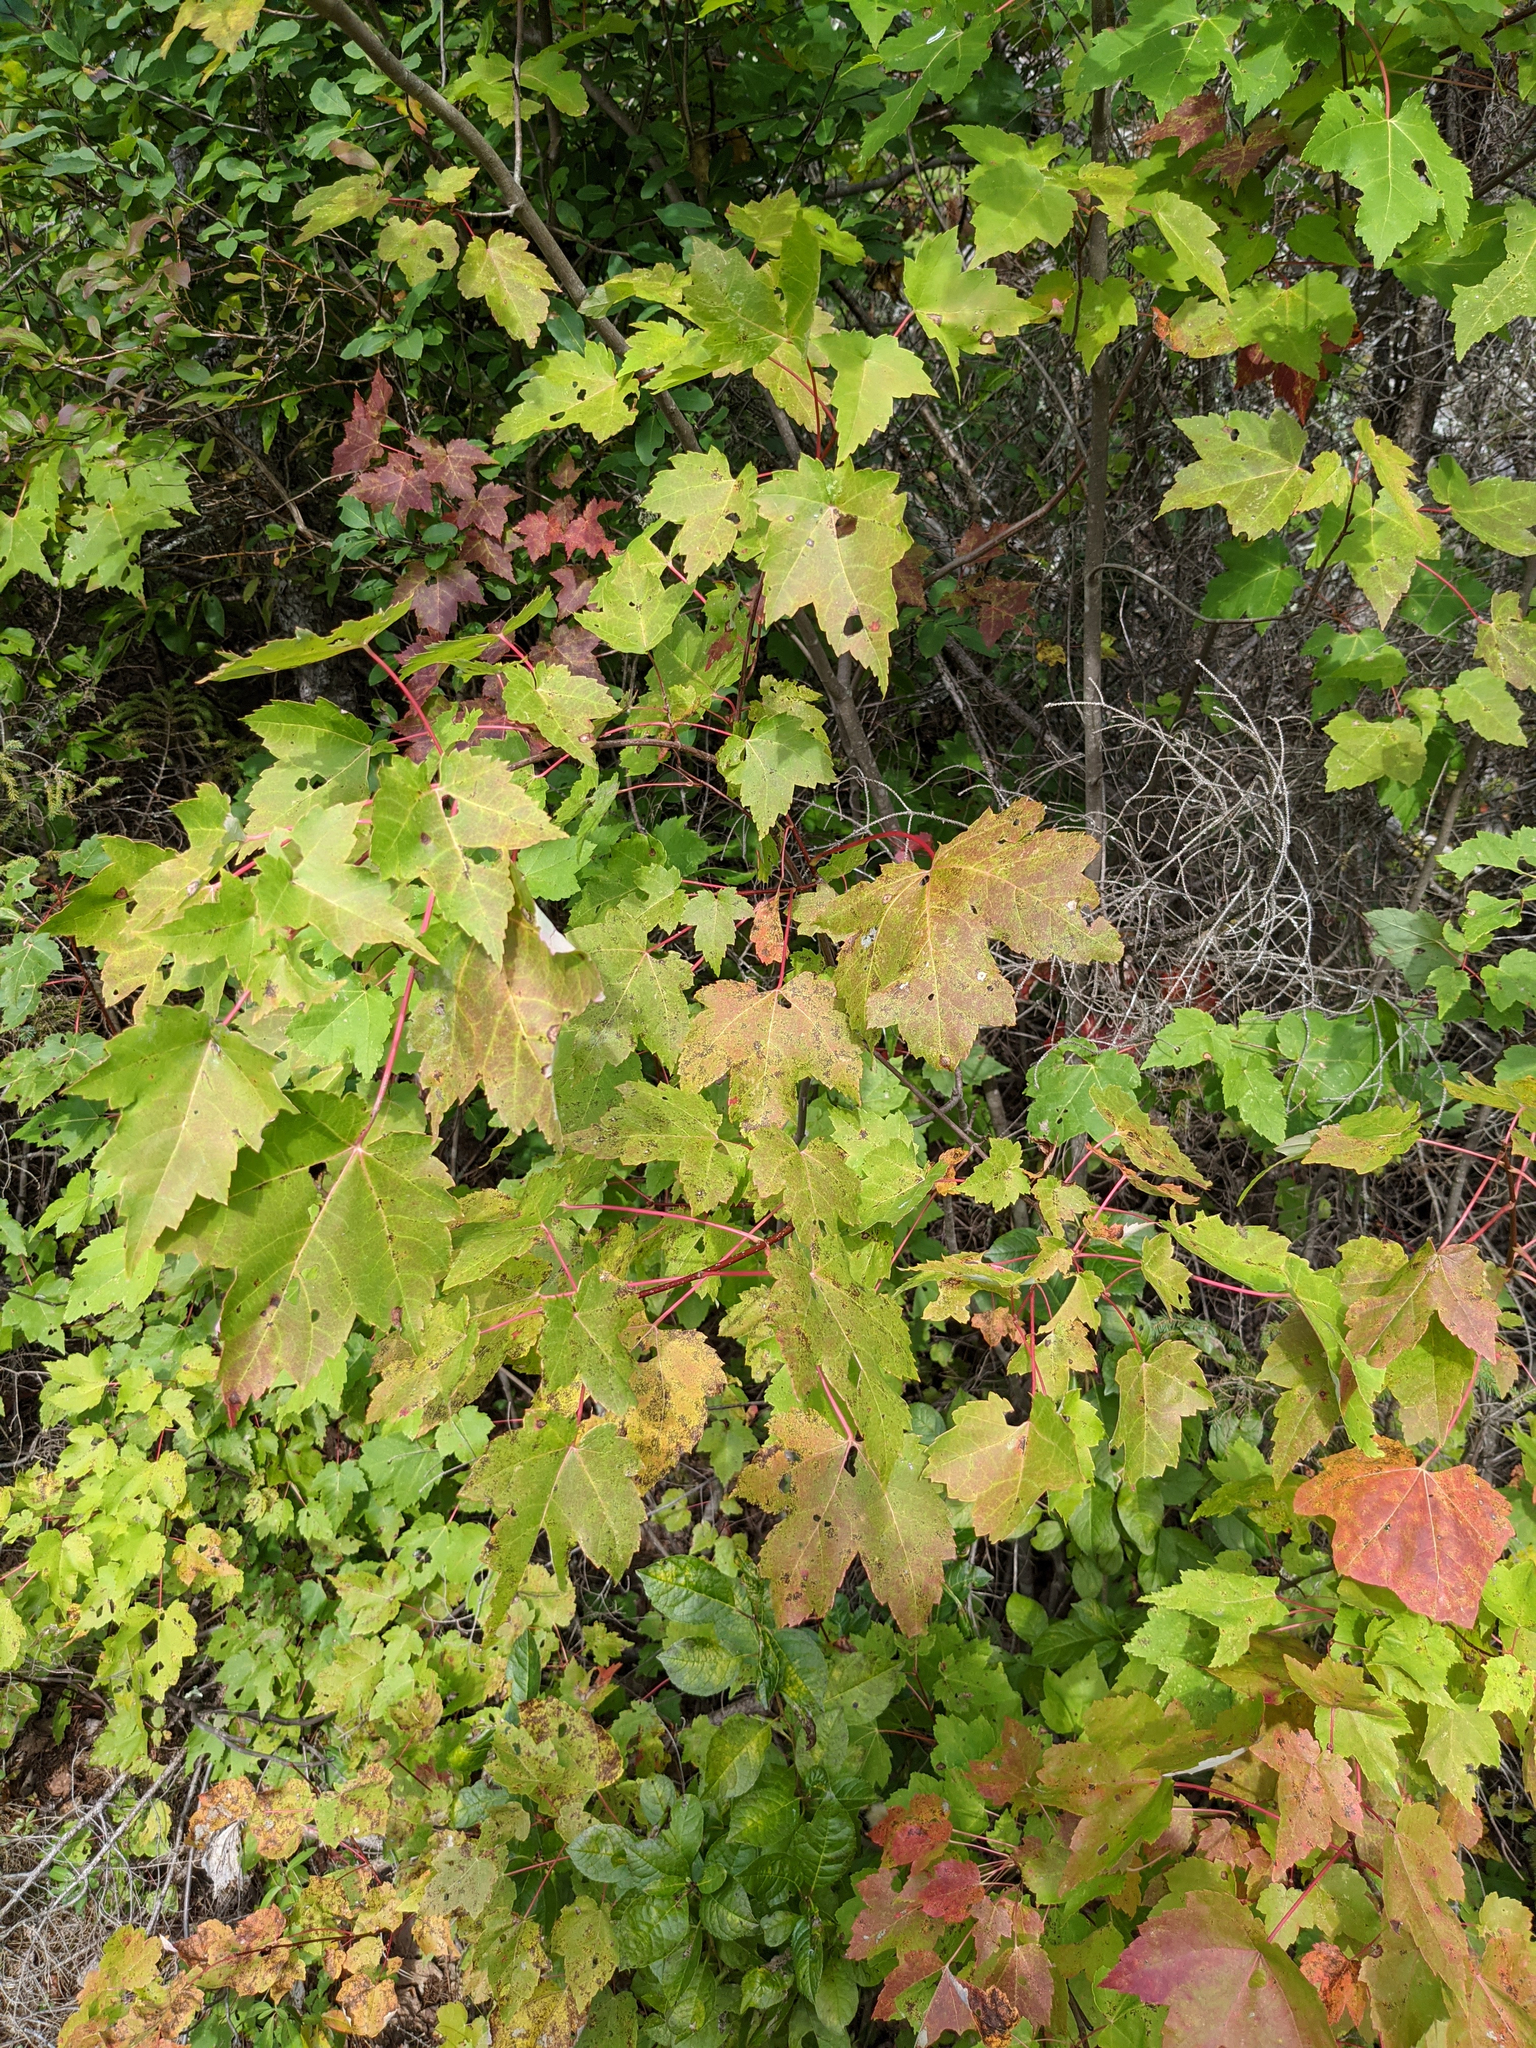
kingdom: Plantae
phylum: Tracheophyta
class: Magnoliopsida
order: Sapindales
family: Sapindaceae
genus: Acer
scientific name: Acer rubrum
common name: Red maple
